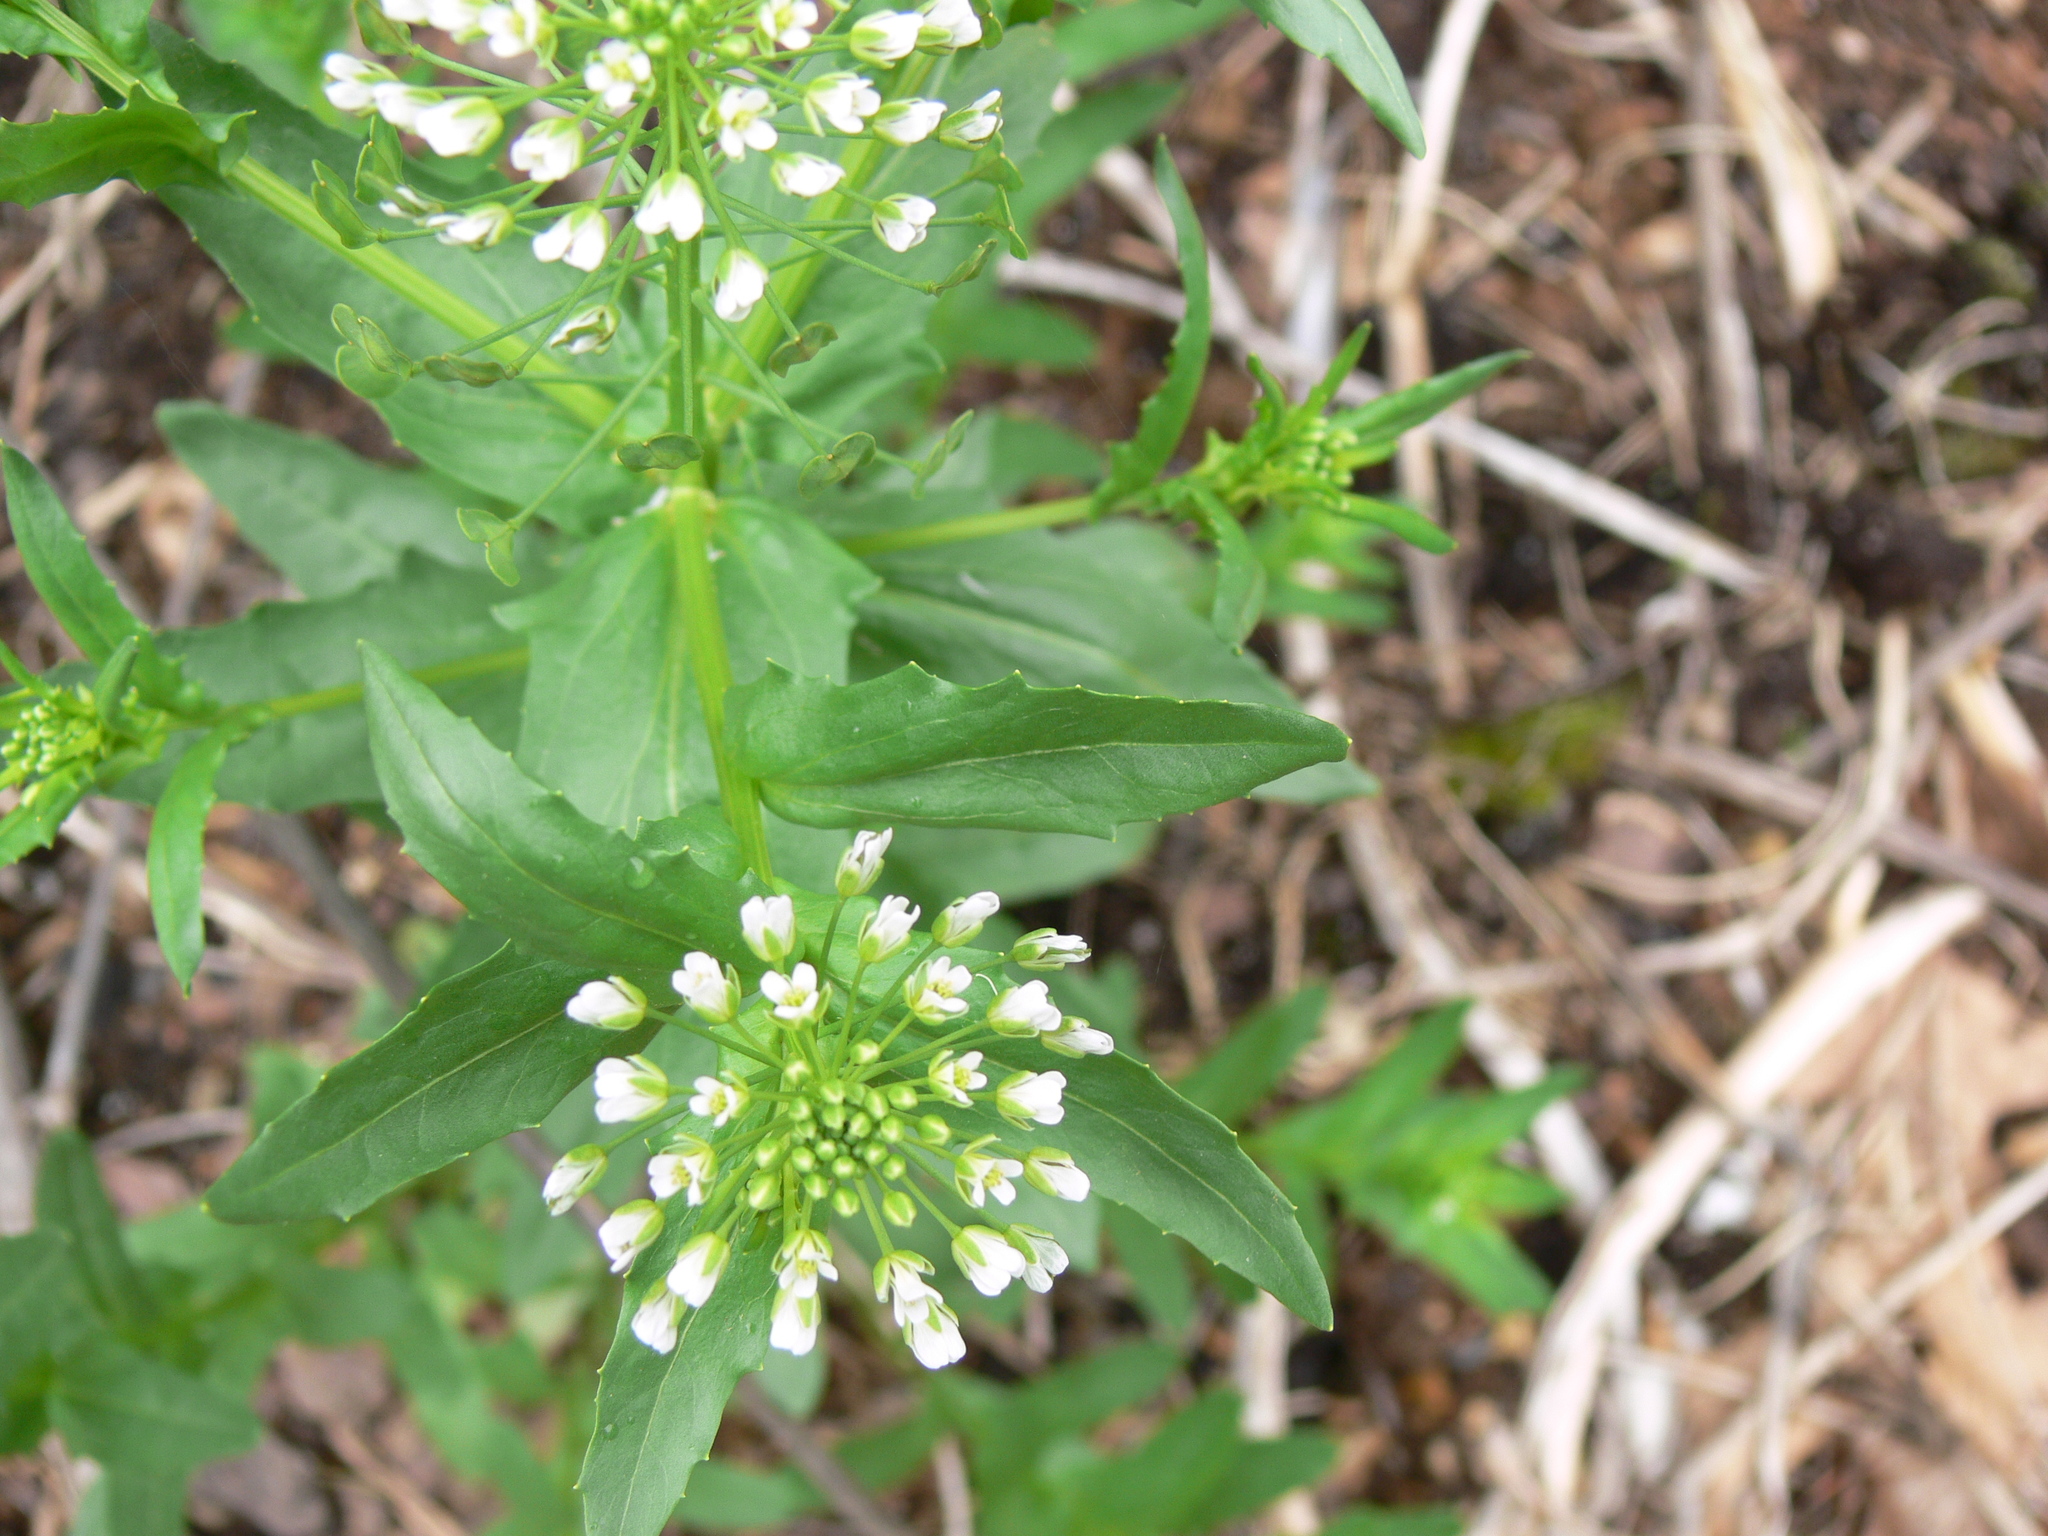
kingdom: Plantae
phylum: Tracheophyta
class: Magnoliopsida
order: Brassicales
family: Brassicaceae
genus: Thlaspi
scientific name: Thlaspi arvense
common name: Field pennycress
